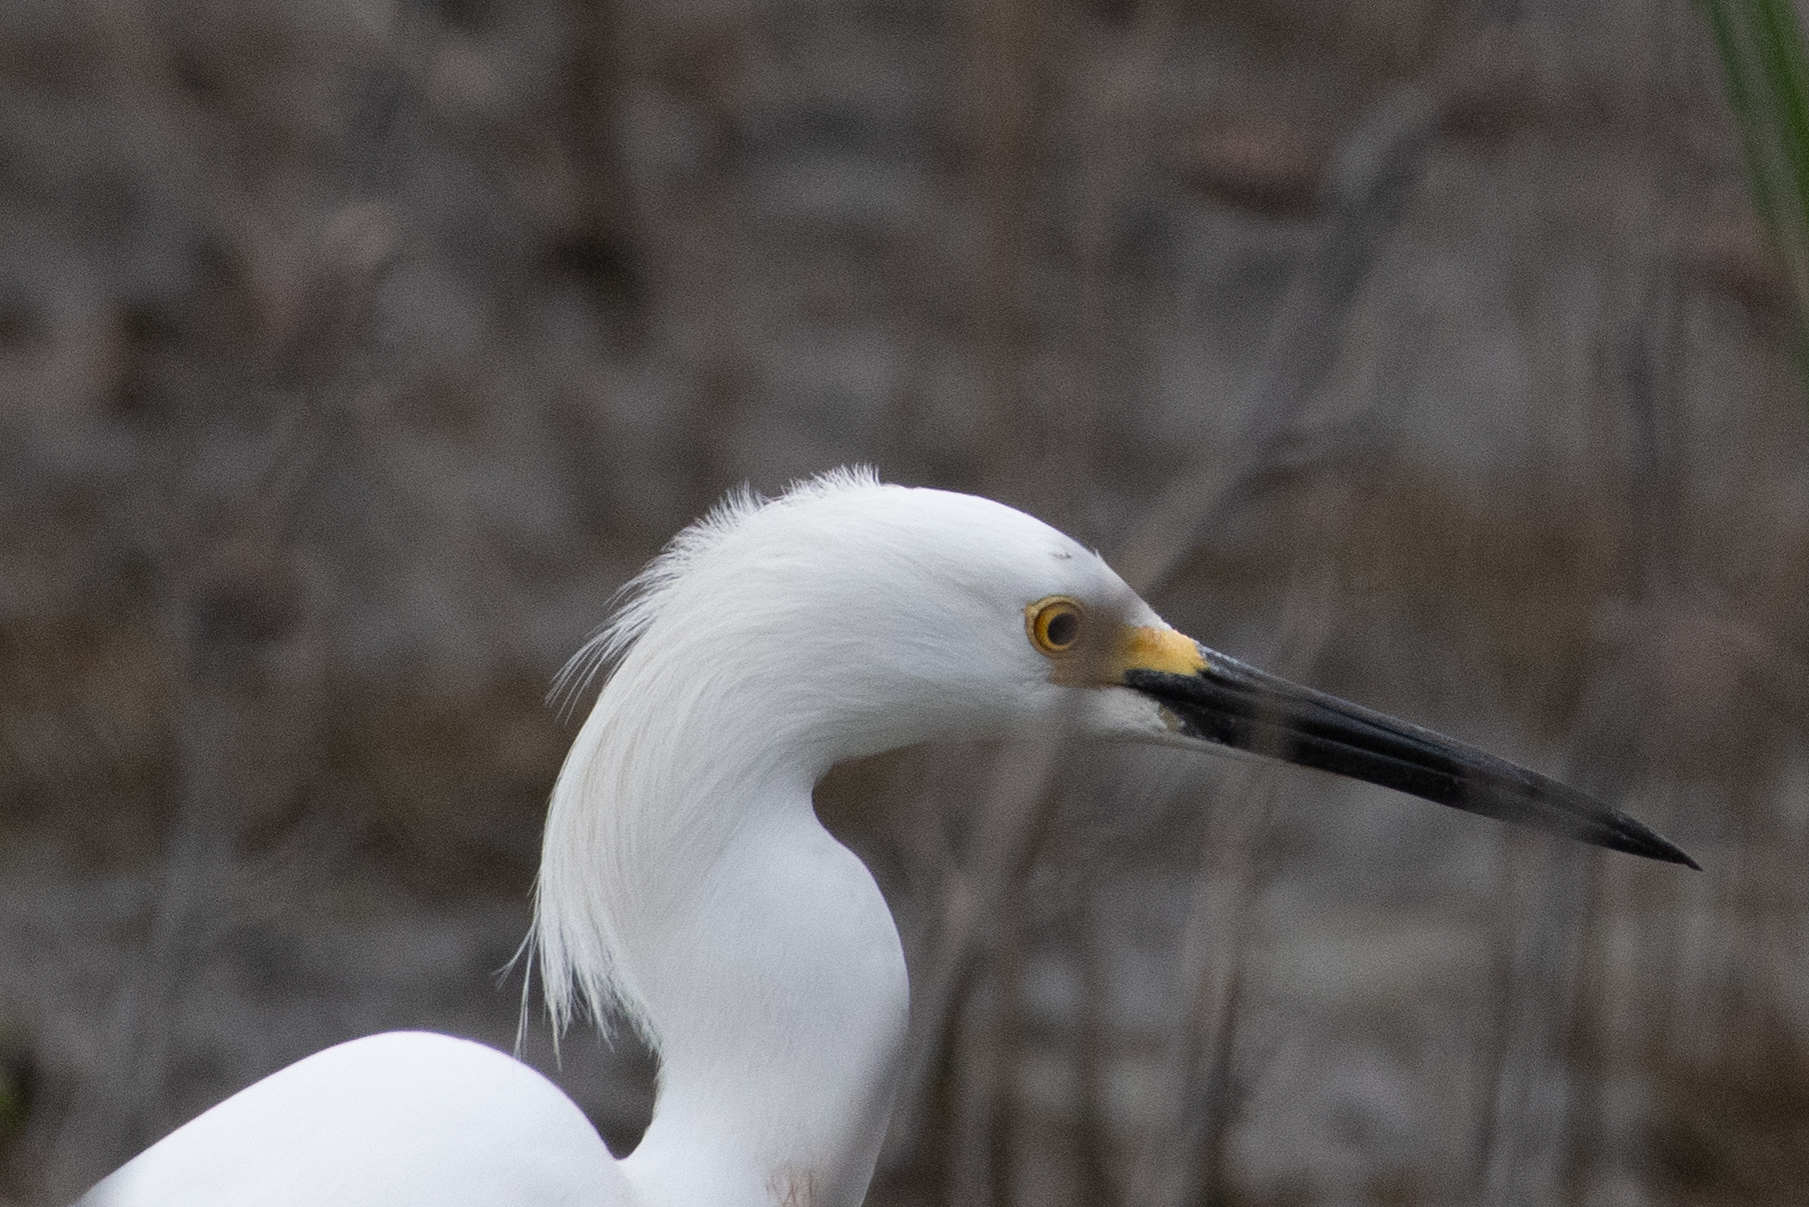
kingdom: Animalia
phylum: Chordata
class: Aves
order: Pelecaniformes
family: Ardeidae
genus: Egretta
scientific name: Egretta thula
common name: Snowy egret
